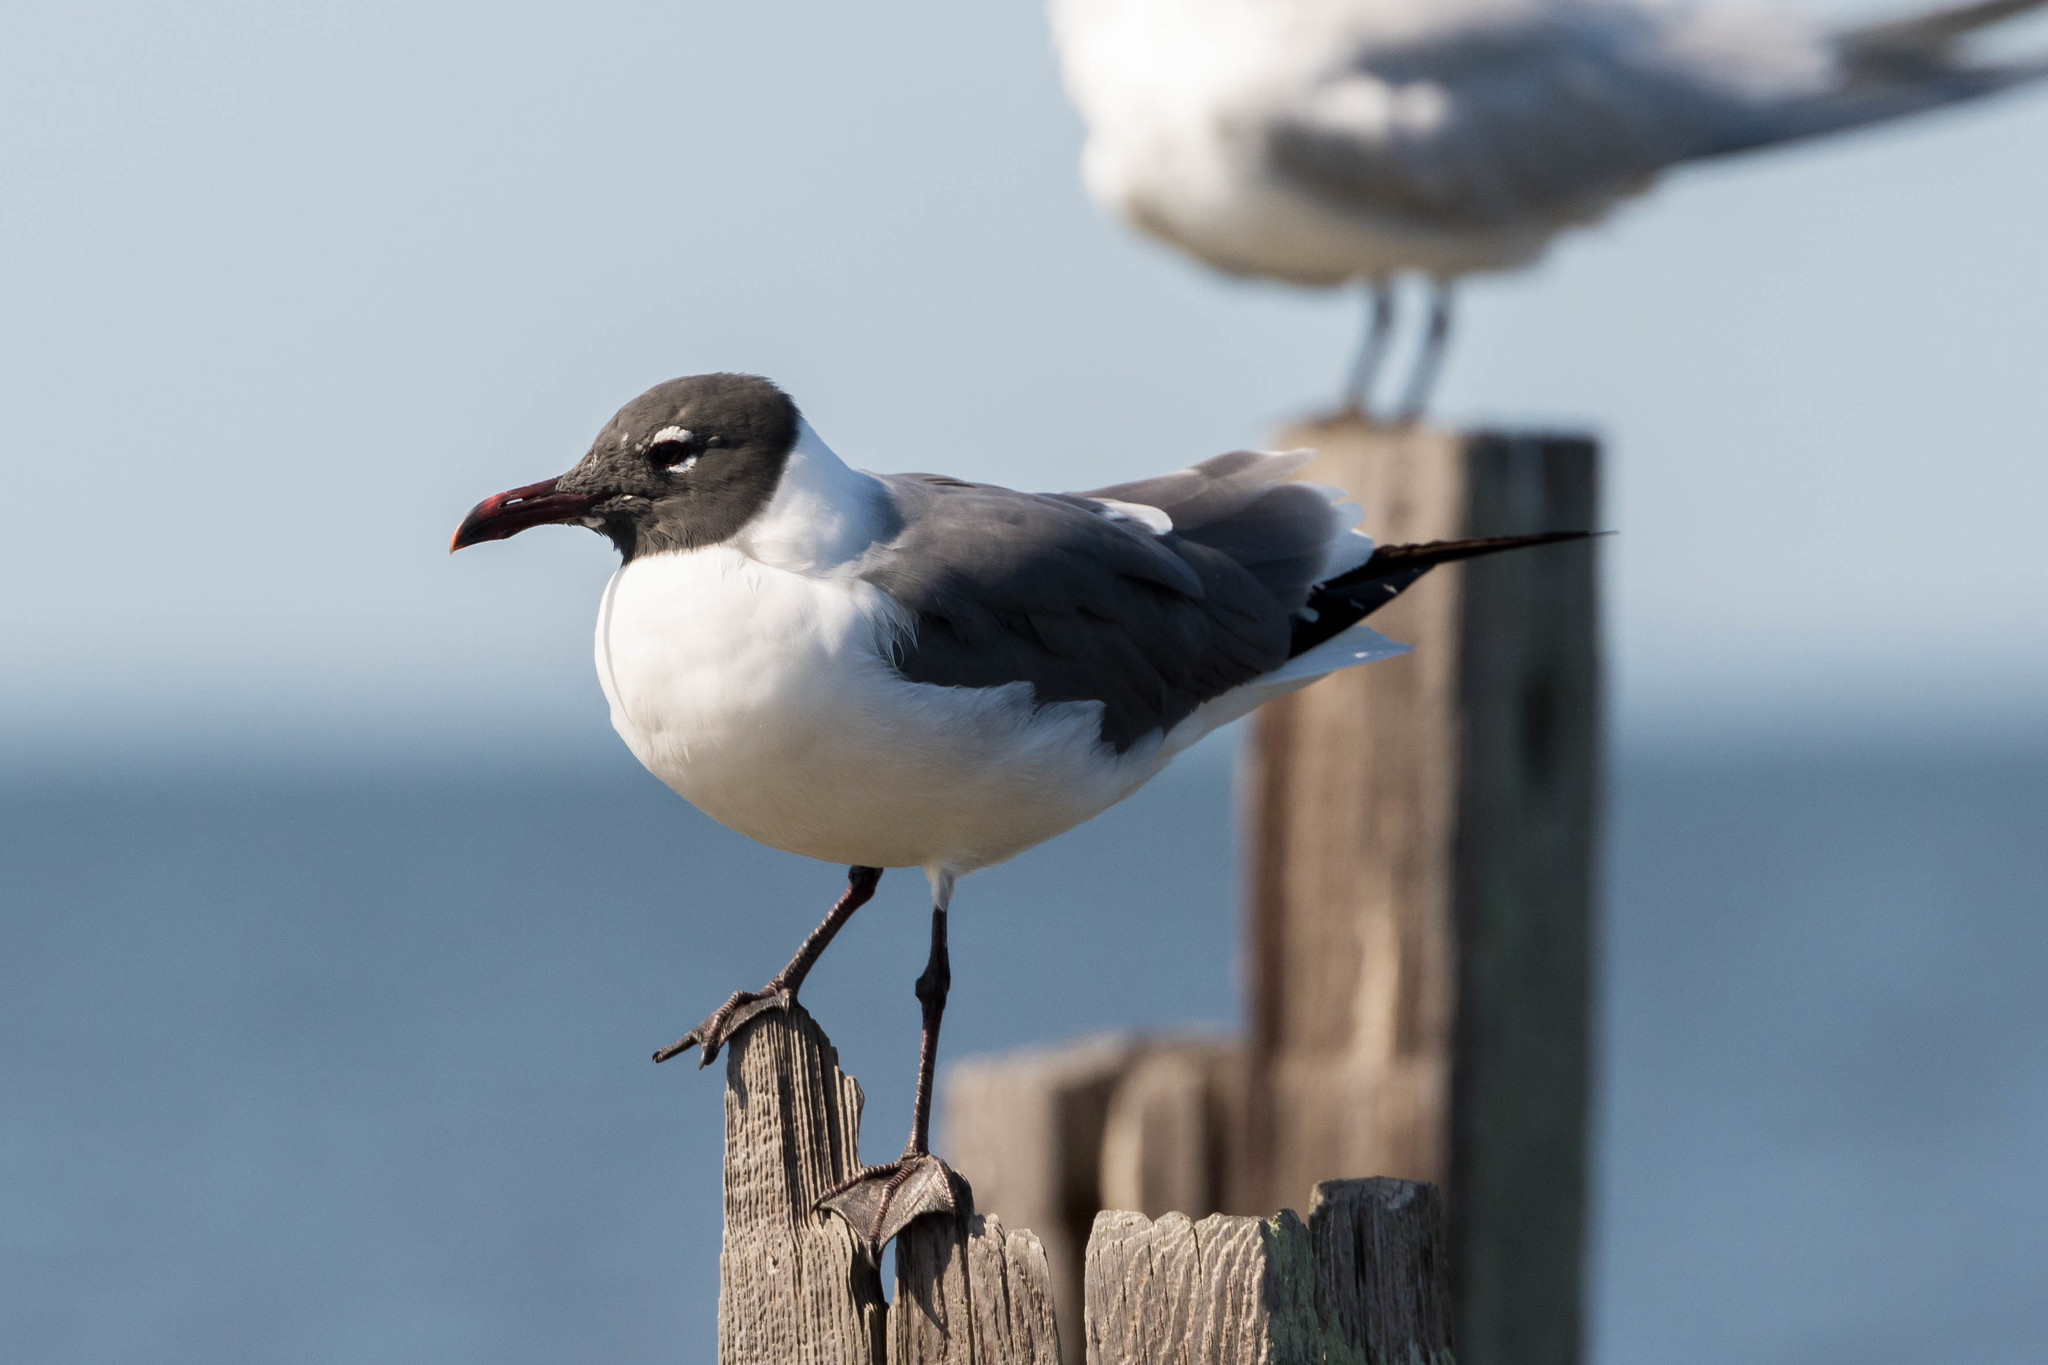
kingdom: Animalia
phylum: Chordata
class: Aves
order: Charadriiformes
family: Laridae
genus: Leucophaeus
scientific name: Leucophaeus atricilla
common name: Laughing gull
